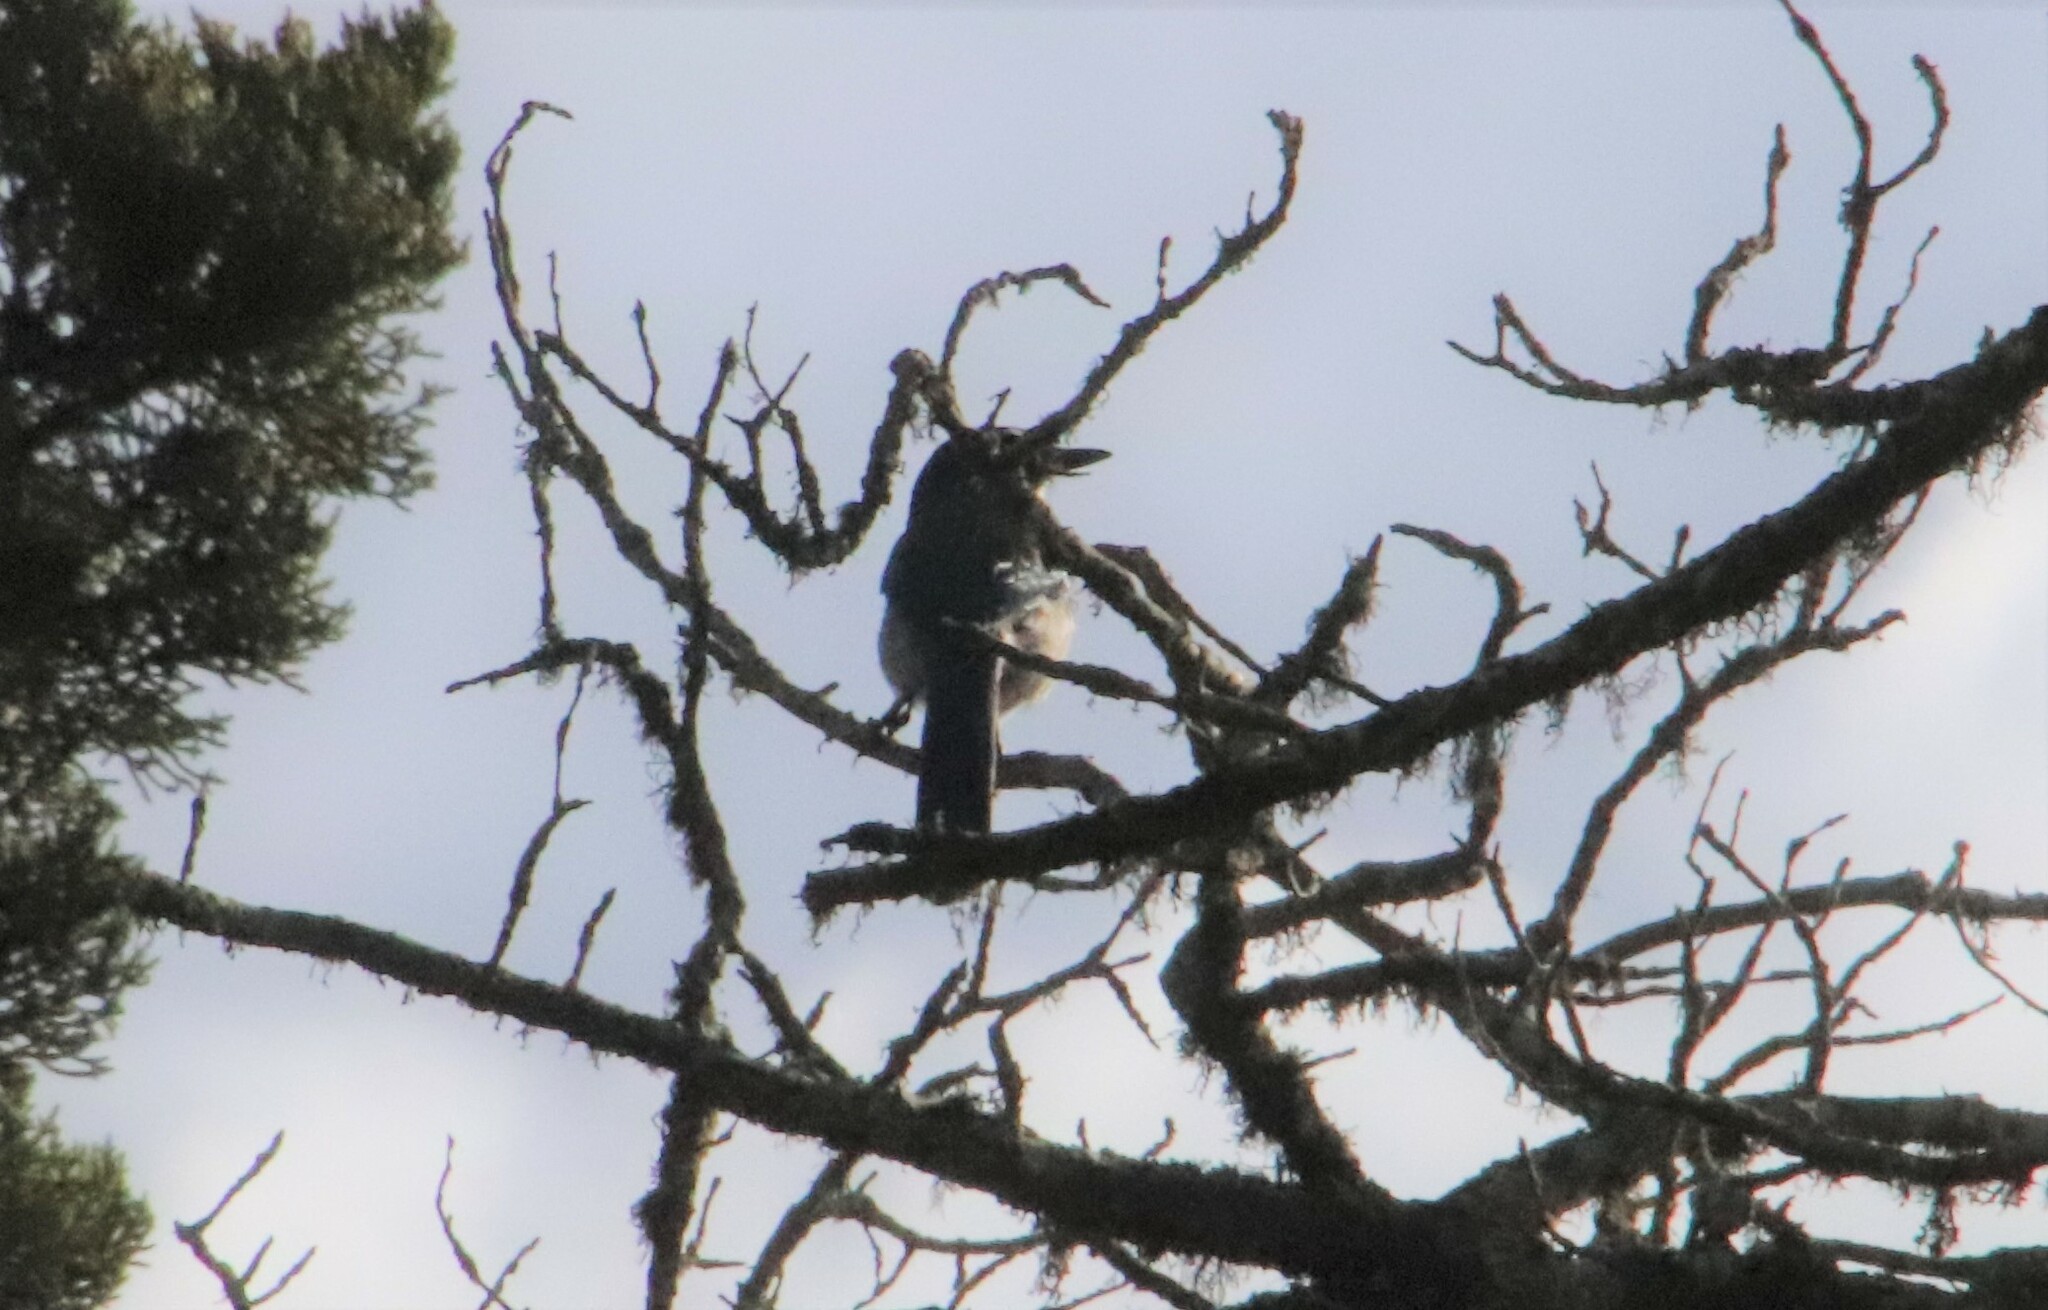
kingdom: Animalia
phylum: Chordata
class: Aves
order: Passeriformes
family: Corvidae
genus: Aphelocoma
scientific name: Aphelocoma californica
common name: California scrub-jay
